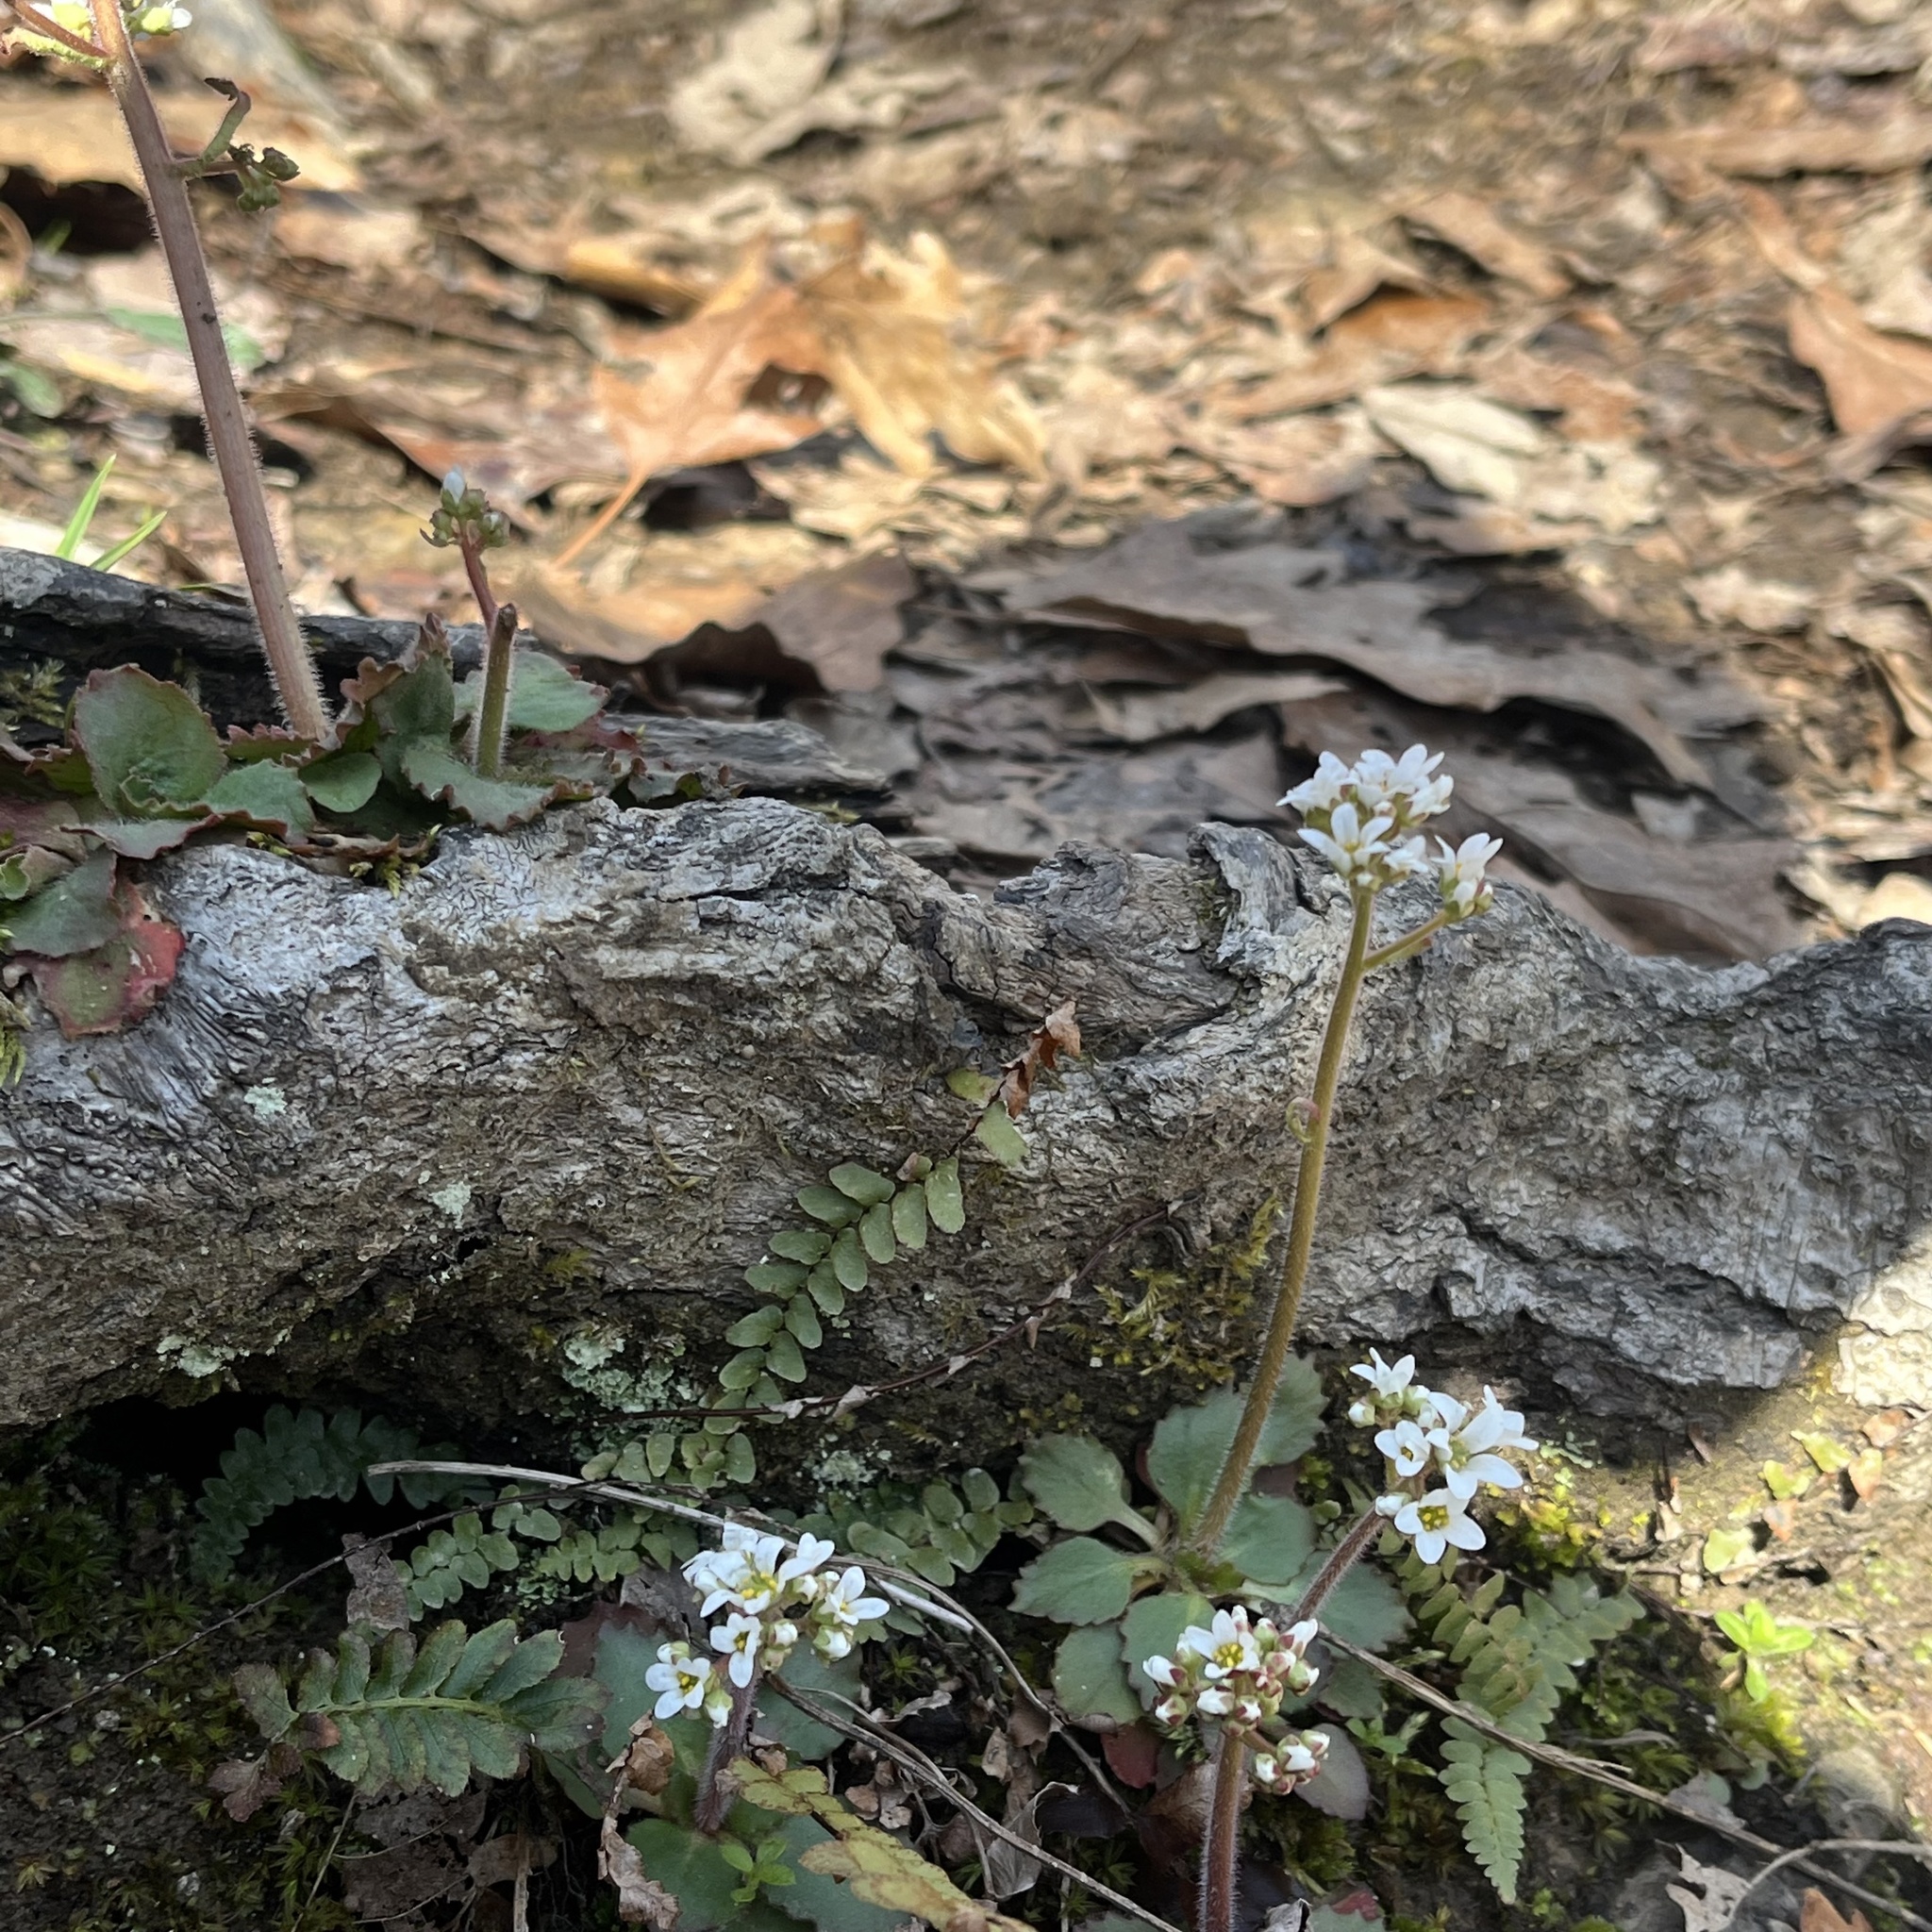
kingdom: Plantae
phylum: Tracheophyta
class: Magnoliopsida
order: Saxifragales
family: Saxifragaceae
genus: Micranthes
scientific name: Micranthes virginiensis
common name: Early saxifrage
